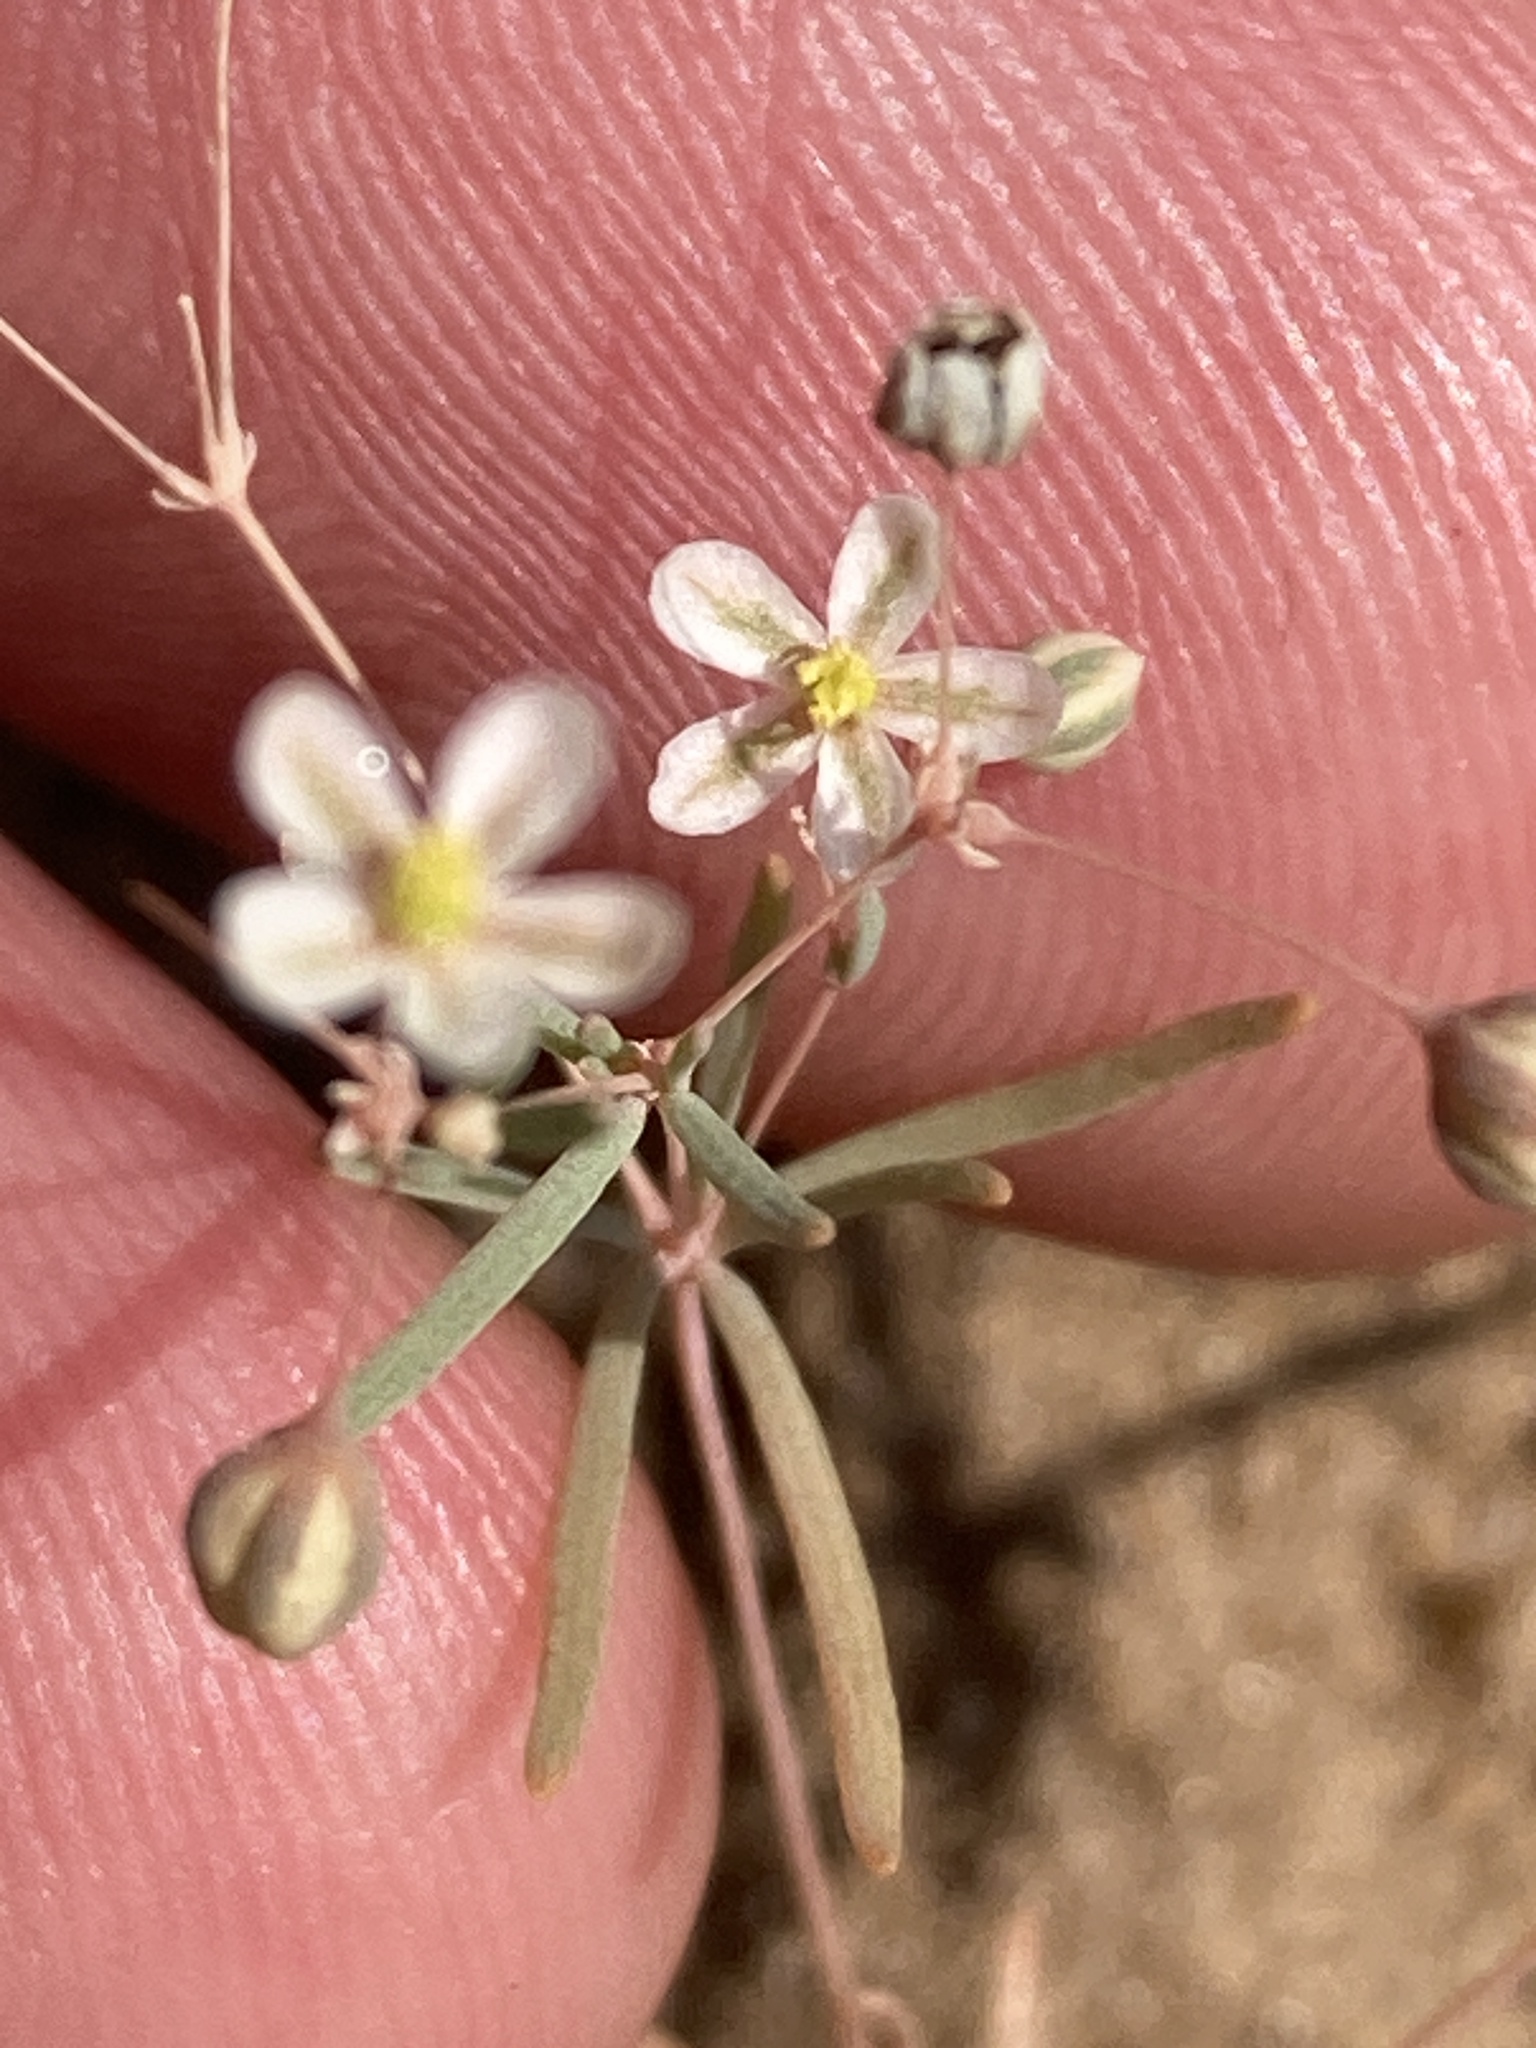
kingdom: Plantae
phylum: Tracheophyta
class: Magnoliopsida
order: Caryophyllales
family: Molluginaceae
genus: Hypertelis
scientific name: Hypertelis cerviana
